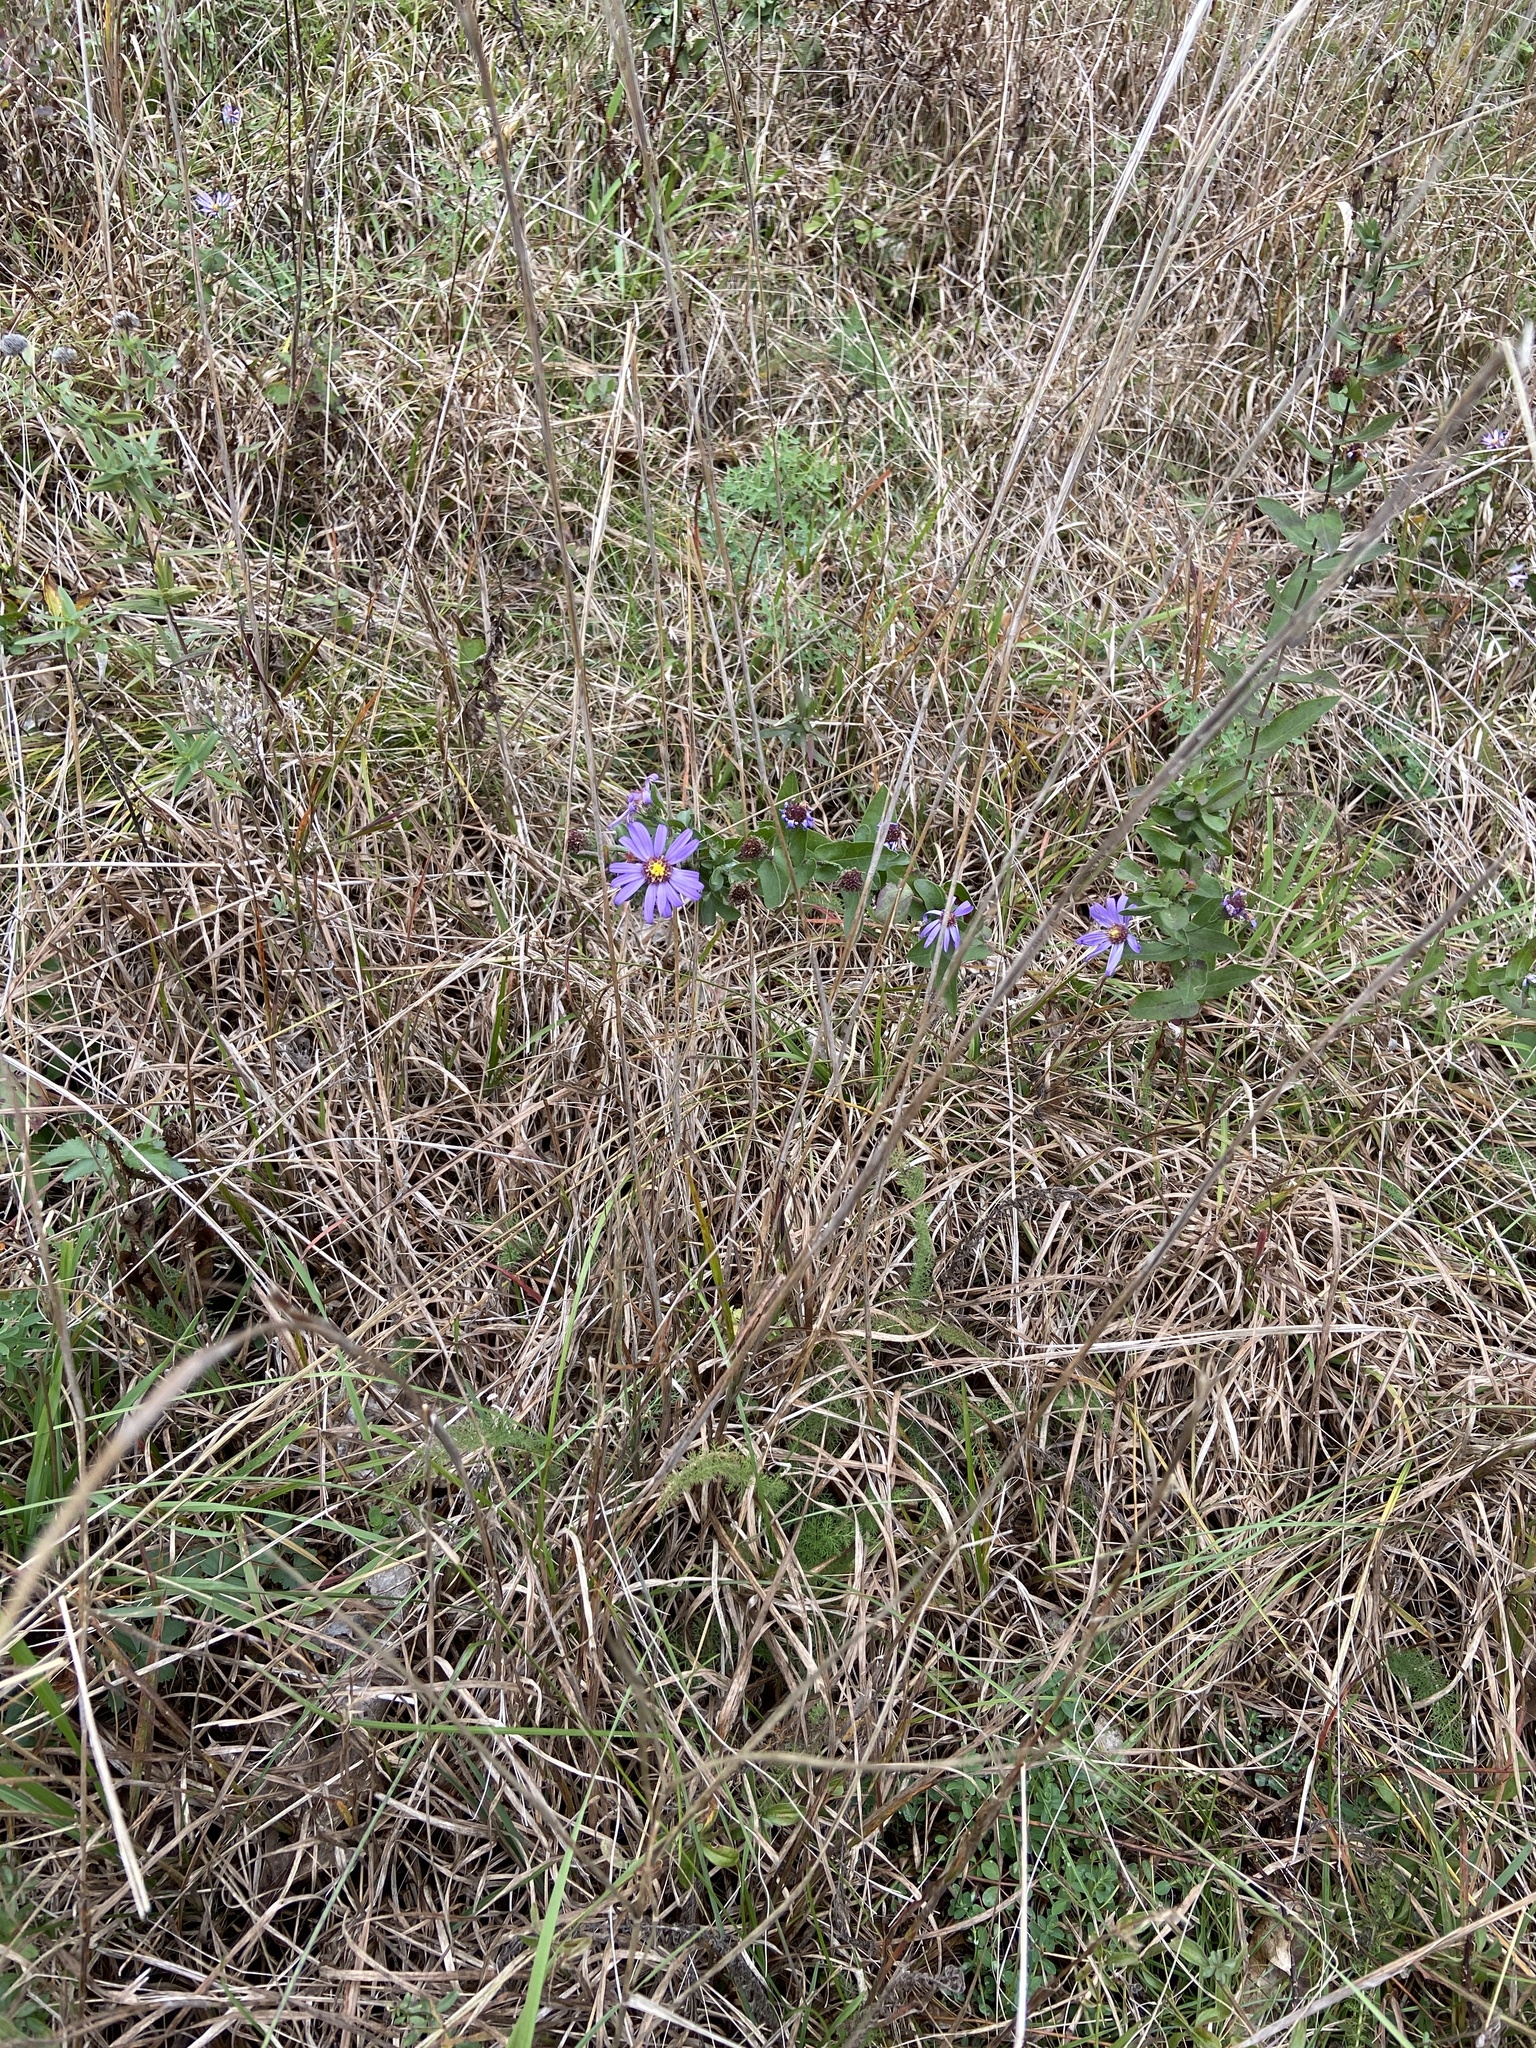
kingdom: Plantae
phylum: Tracheophyta
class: Magnoliopsida
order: Asterales
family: Asteraceae
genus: Symphyotrichum
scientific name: Symphyotrichum patens
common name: Late purple aster
